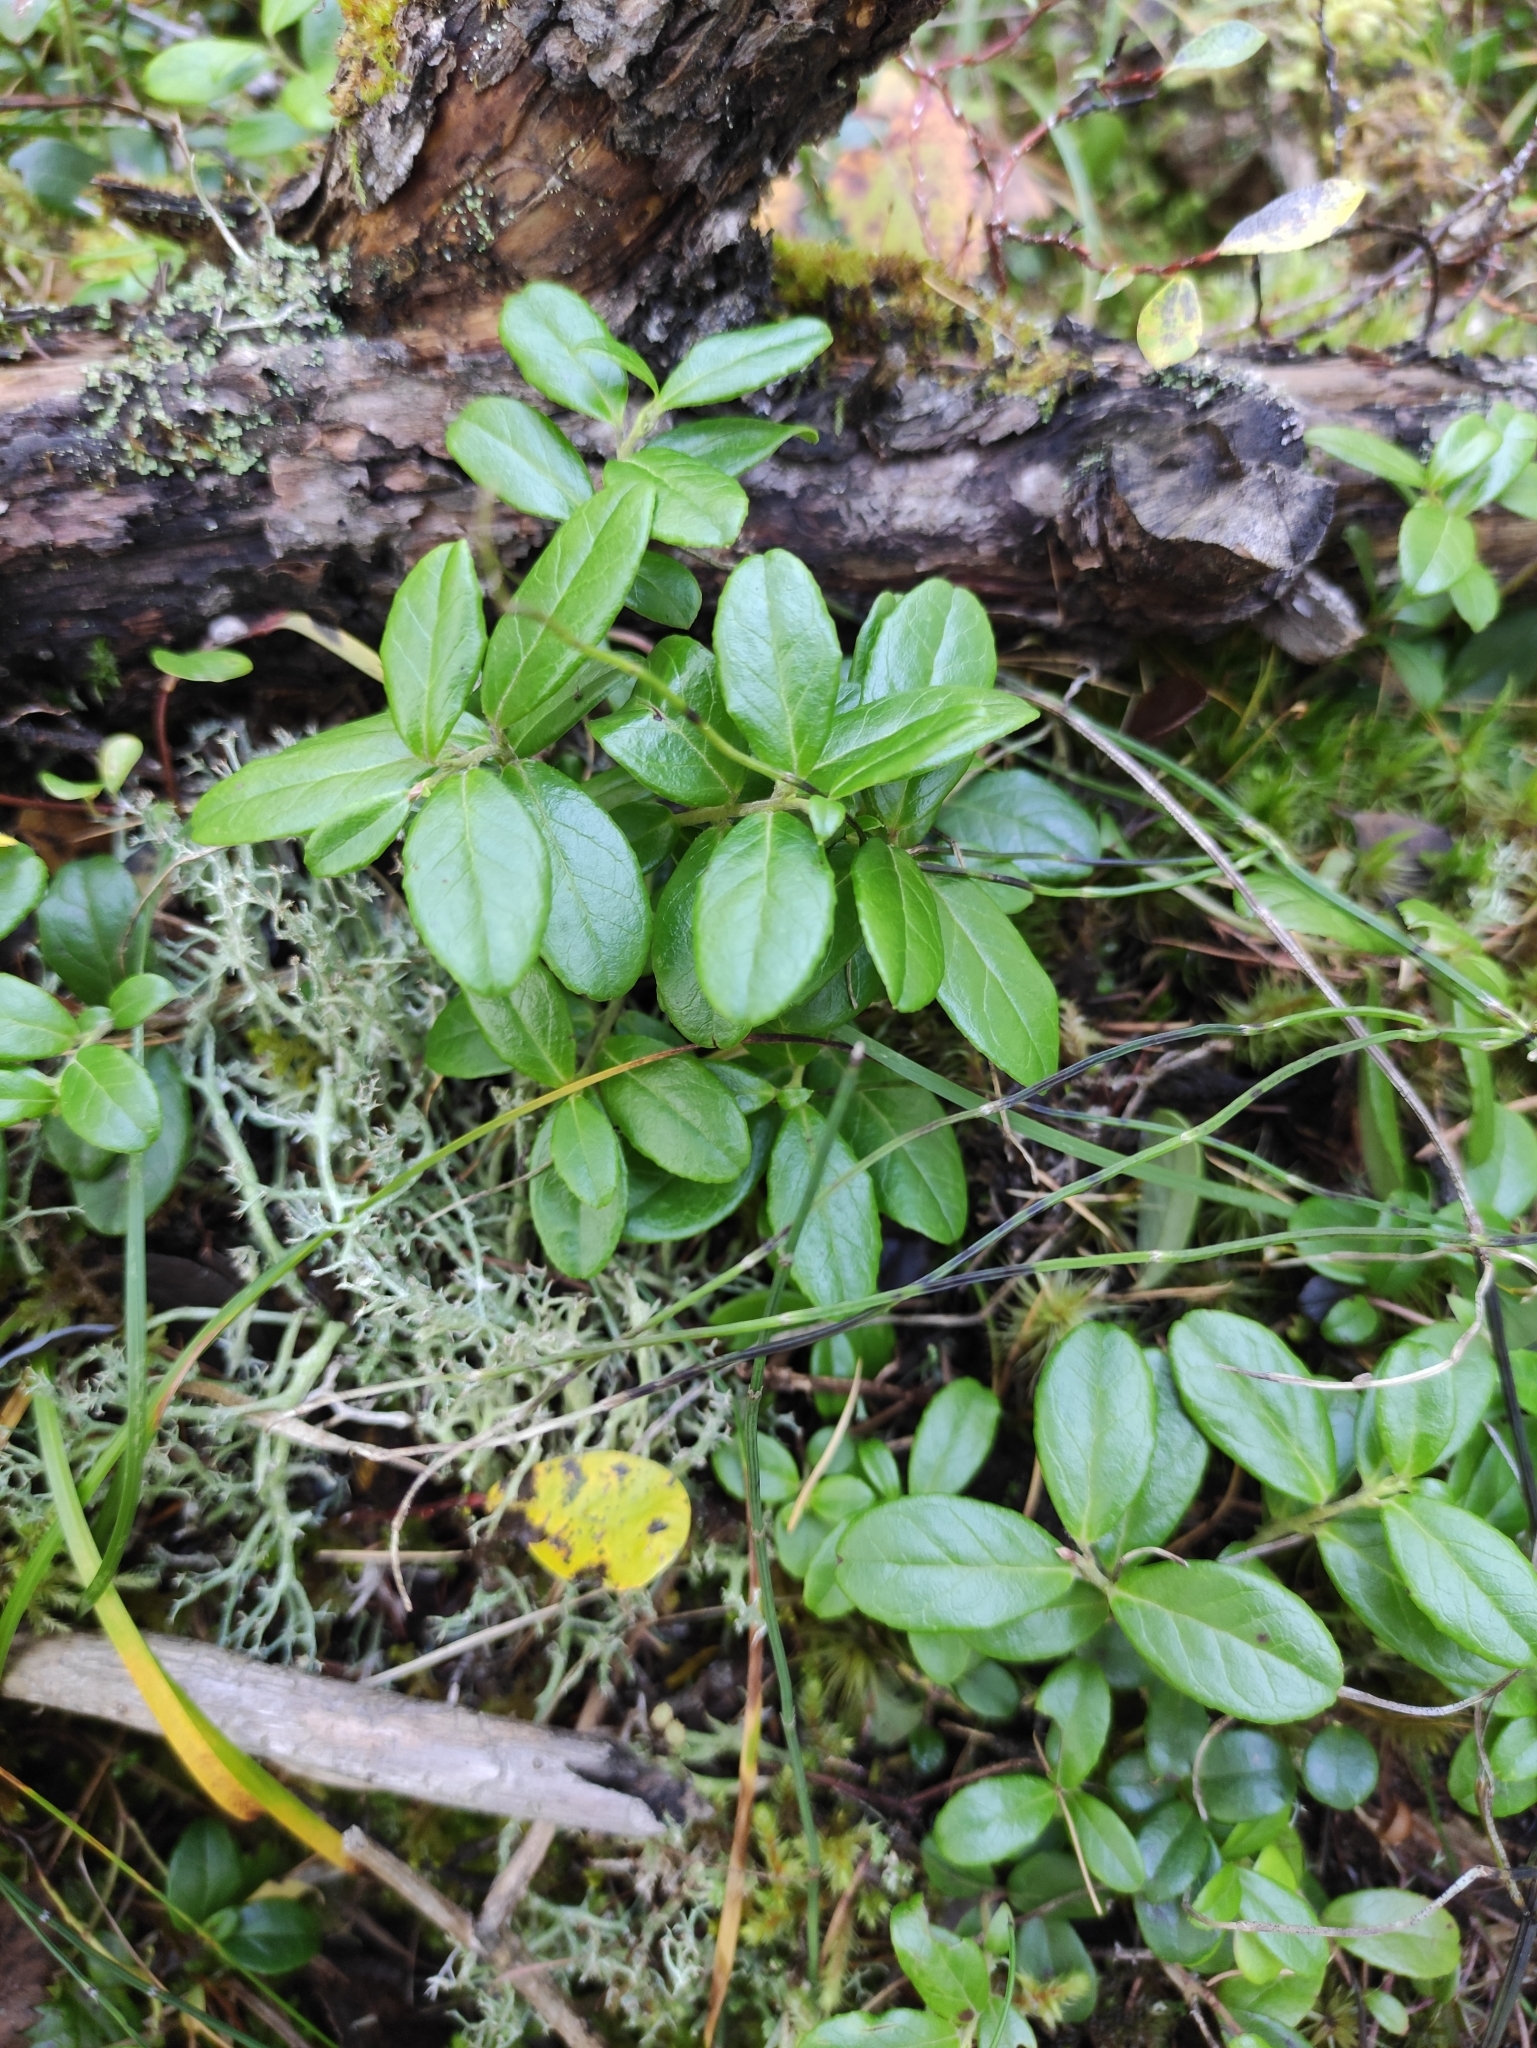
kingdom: Plantae
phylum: Tracheophyta
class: Magnoliopsida
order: Ericales
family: Ericaceae
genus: Vaccinium
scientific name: Vaccinium vitis-idaea
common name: Cowberry
